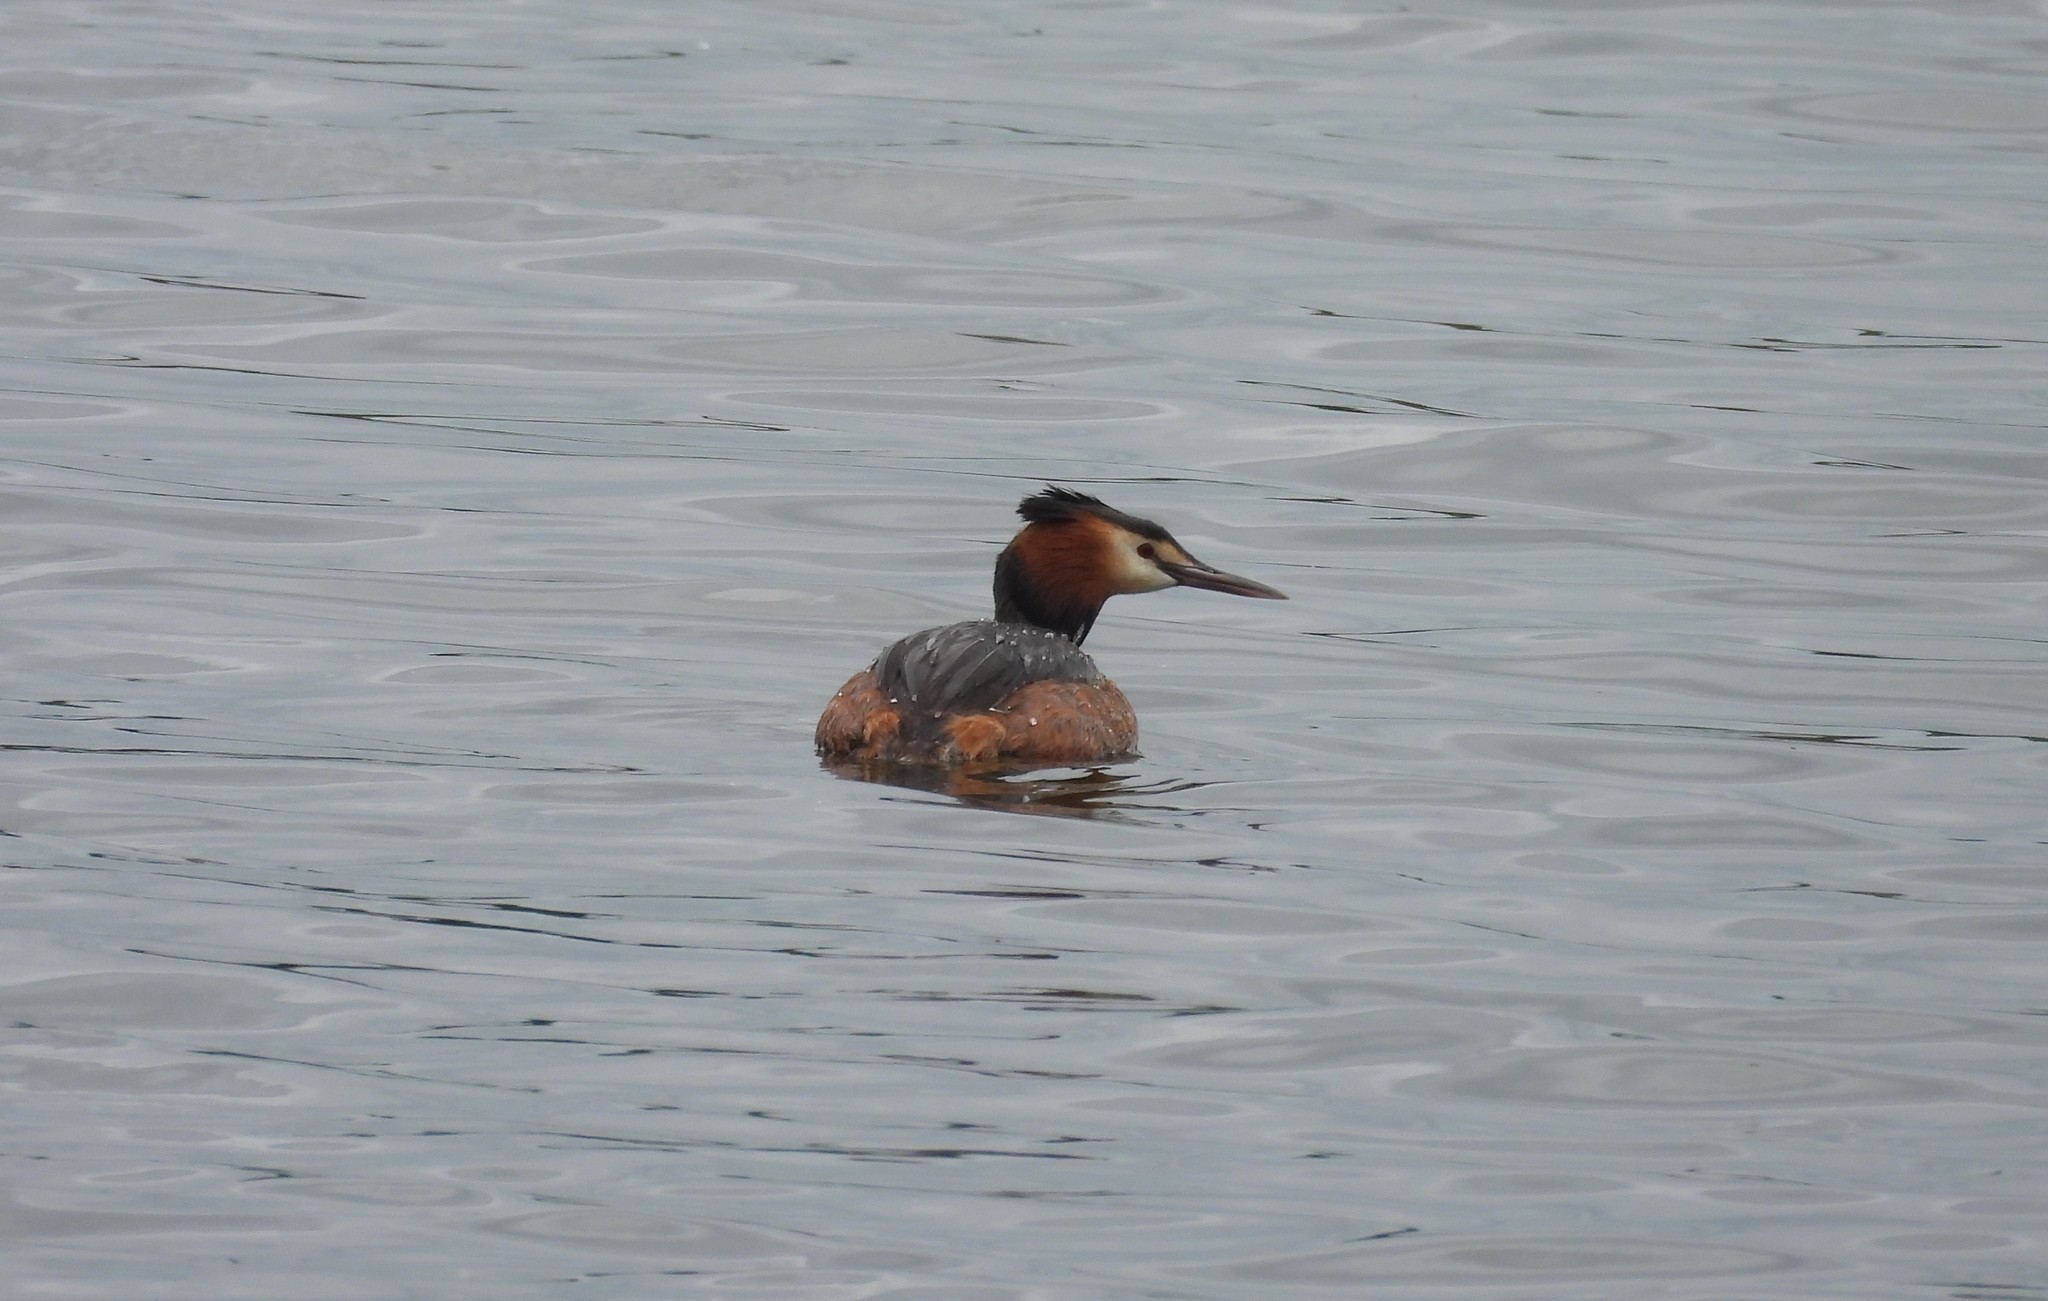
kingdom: Animalia
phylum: Chordata
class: Aves
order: Podicipediformes
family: Podicipedidae
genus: Podiceps
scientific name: Podiceps cristatus
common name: Great crested grebe
